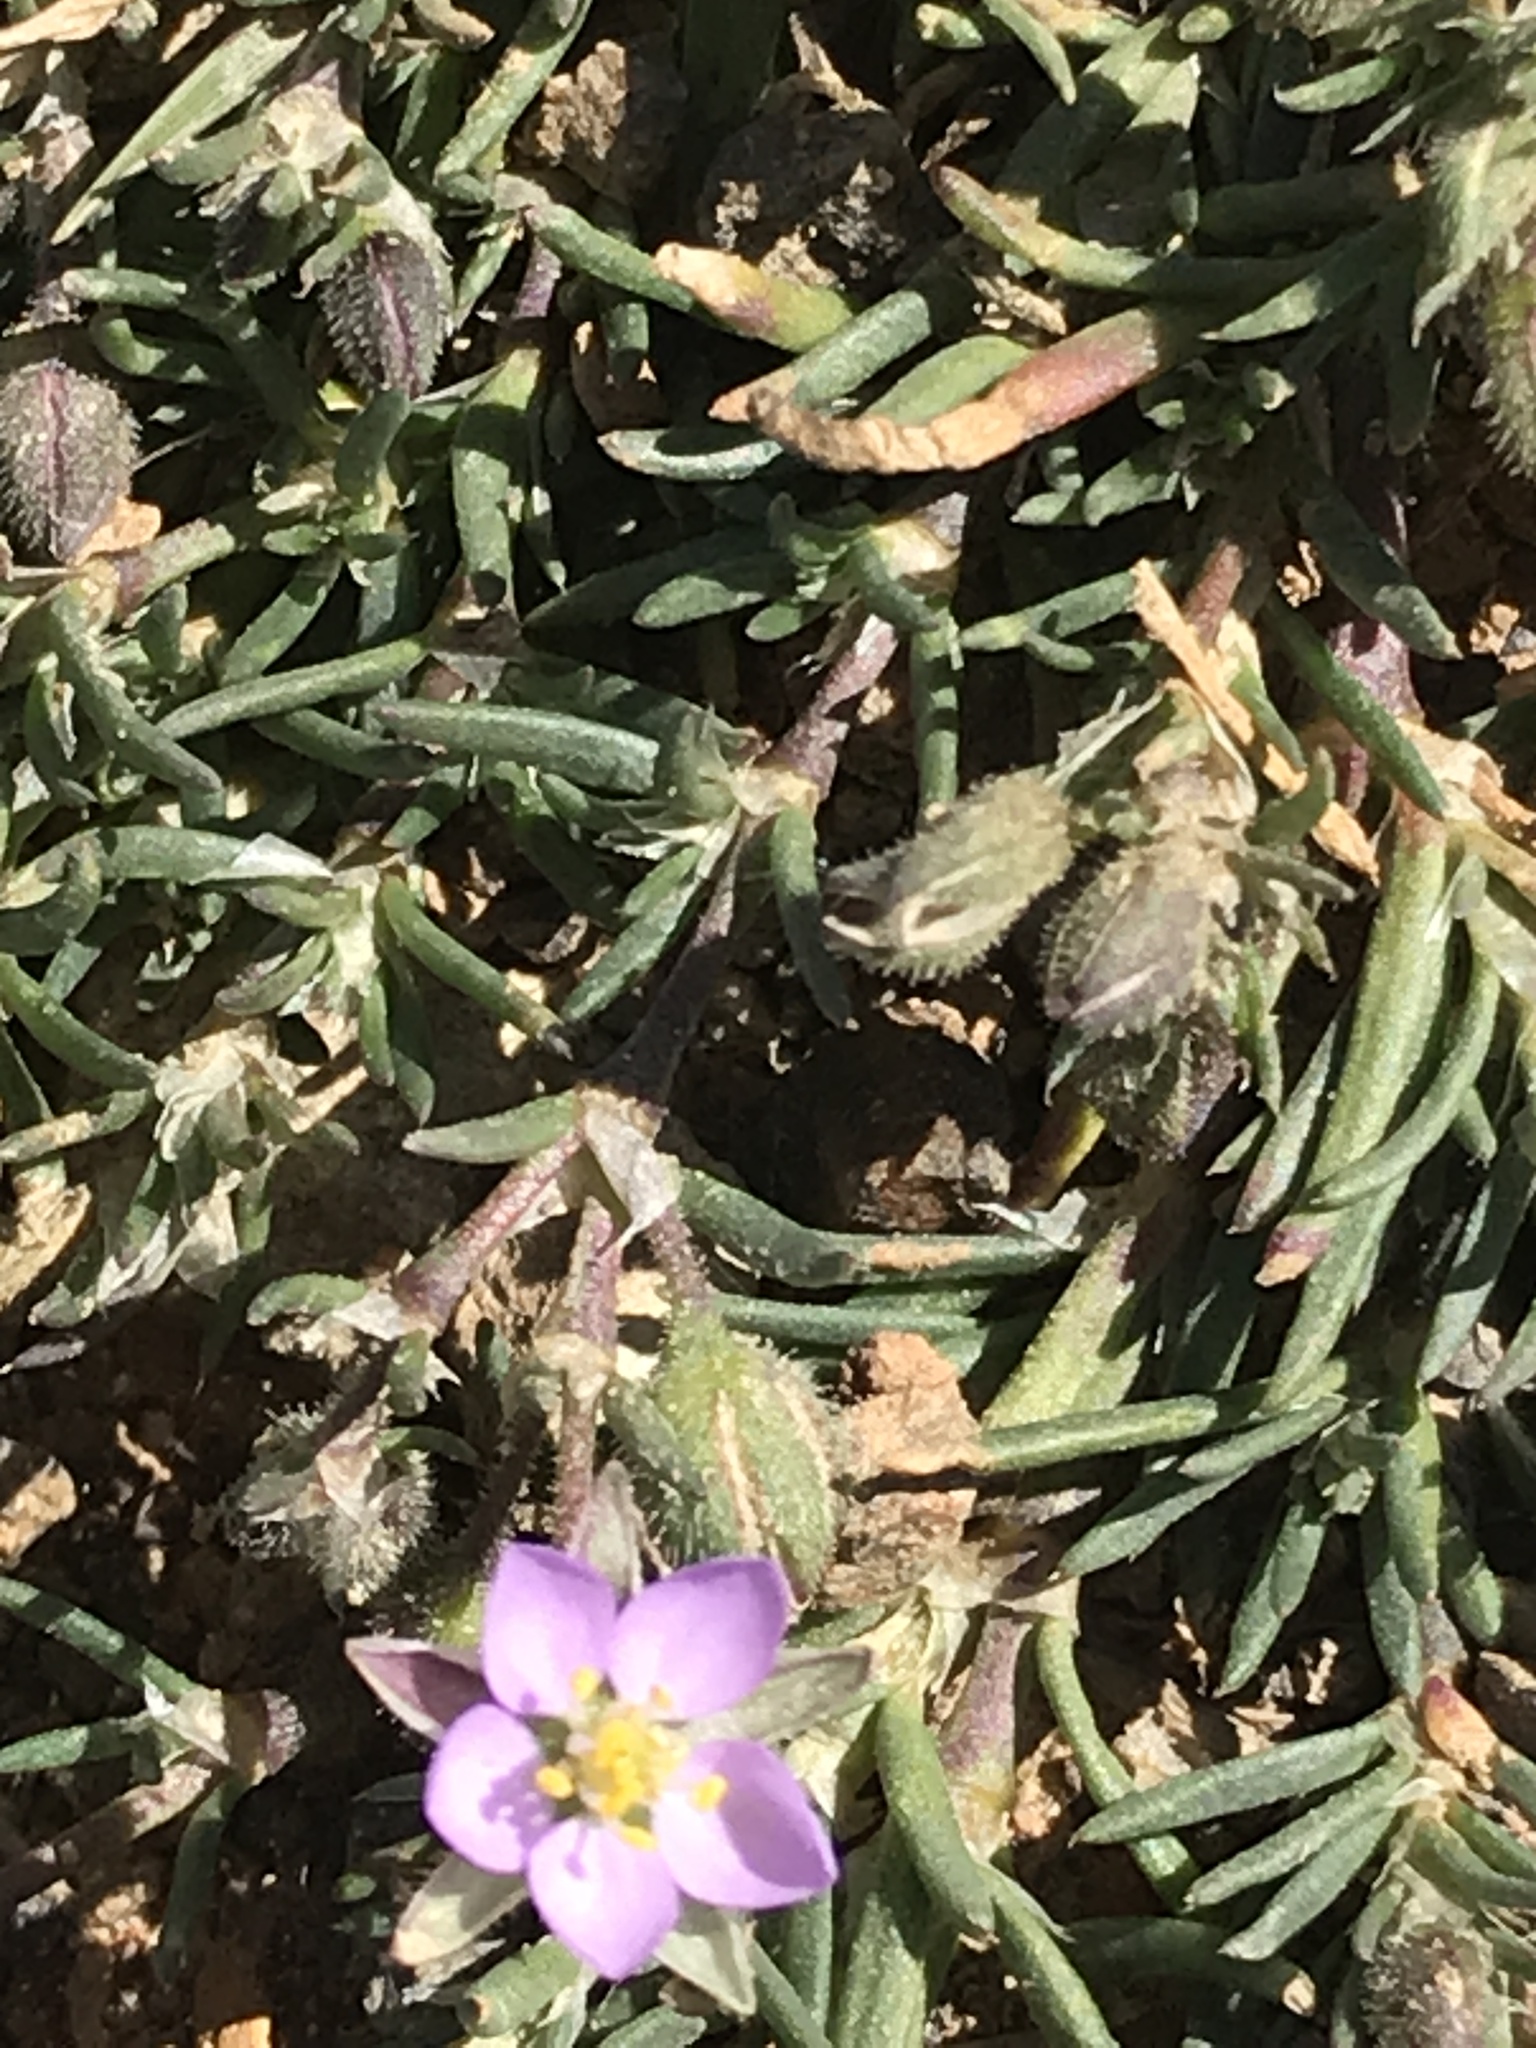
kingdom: Plantae
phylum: Tracheophyta
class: Magnoliopsida
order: Caryophyllales
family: Caryophyllaceae
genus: Spergularia
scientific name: Spergularia rubra
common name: Red sand-spurrey
